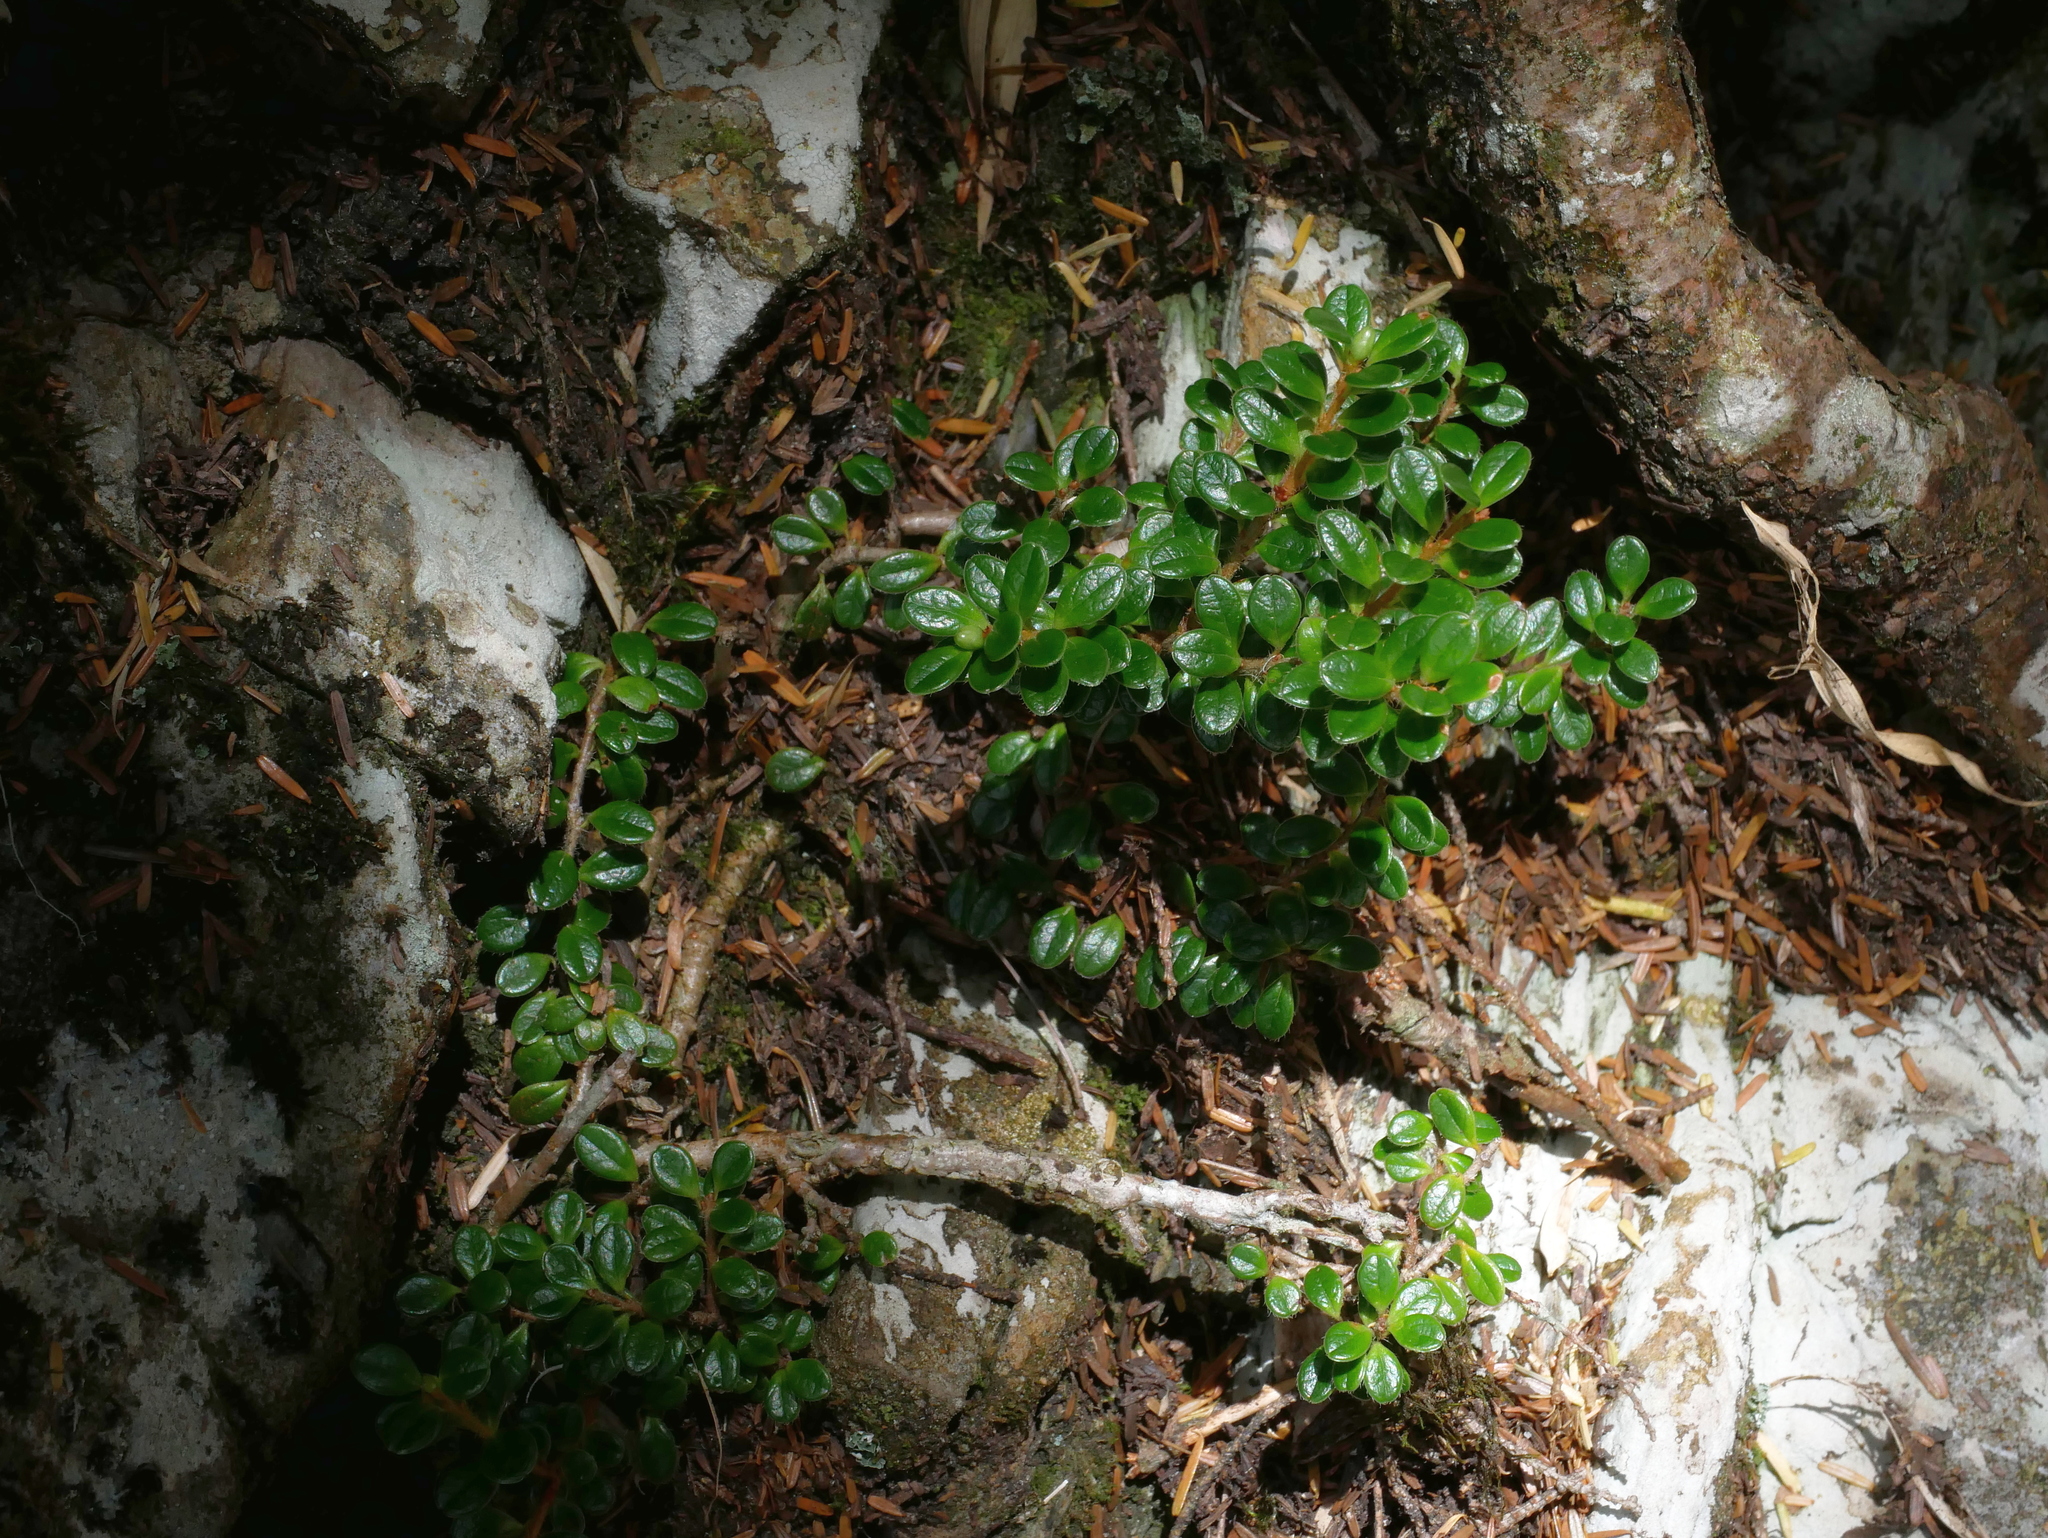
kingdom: Plantae
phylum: Tracheophyta
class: Magnoliopsida
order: Ericales
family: Ericaceae
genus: Vaccinium
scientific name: Vaccinium delavayi
